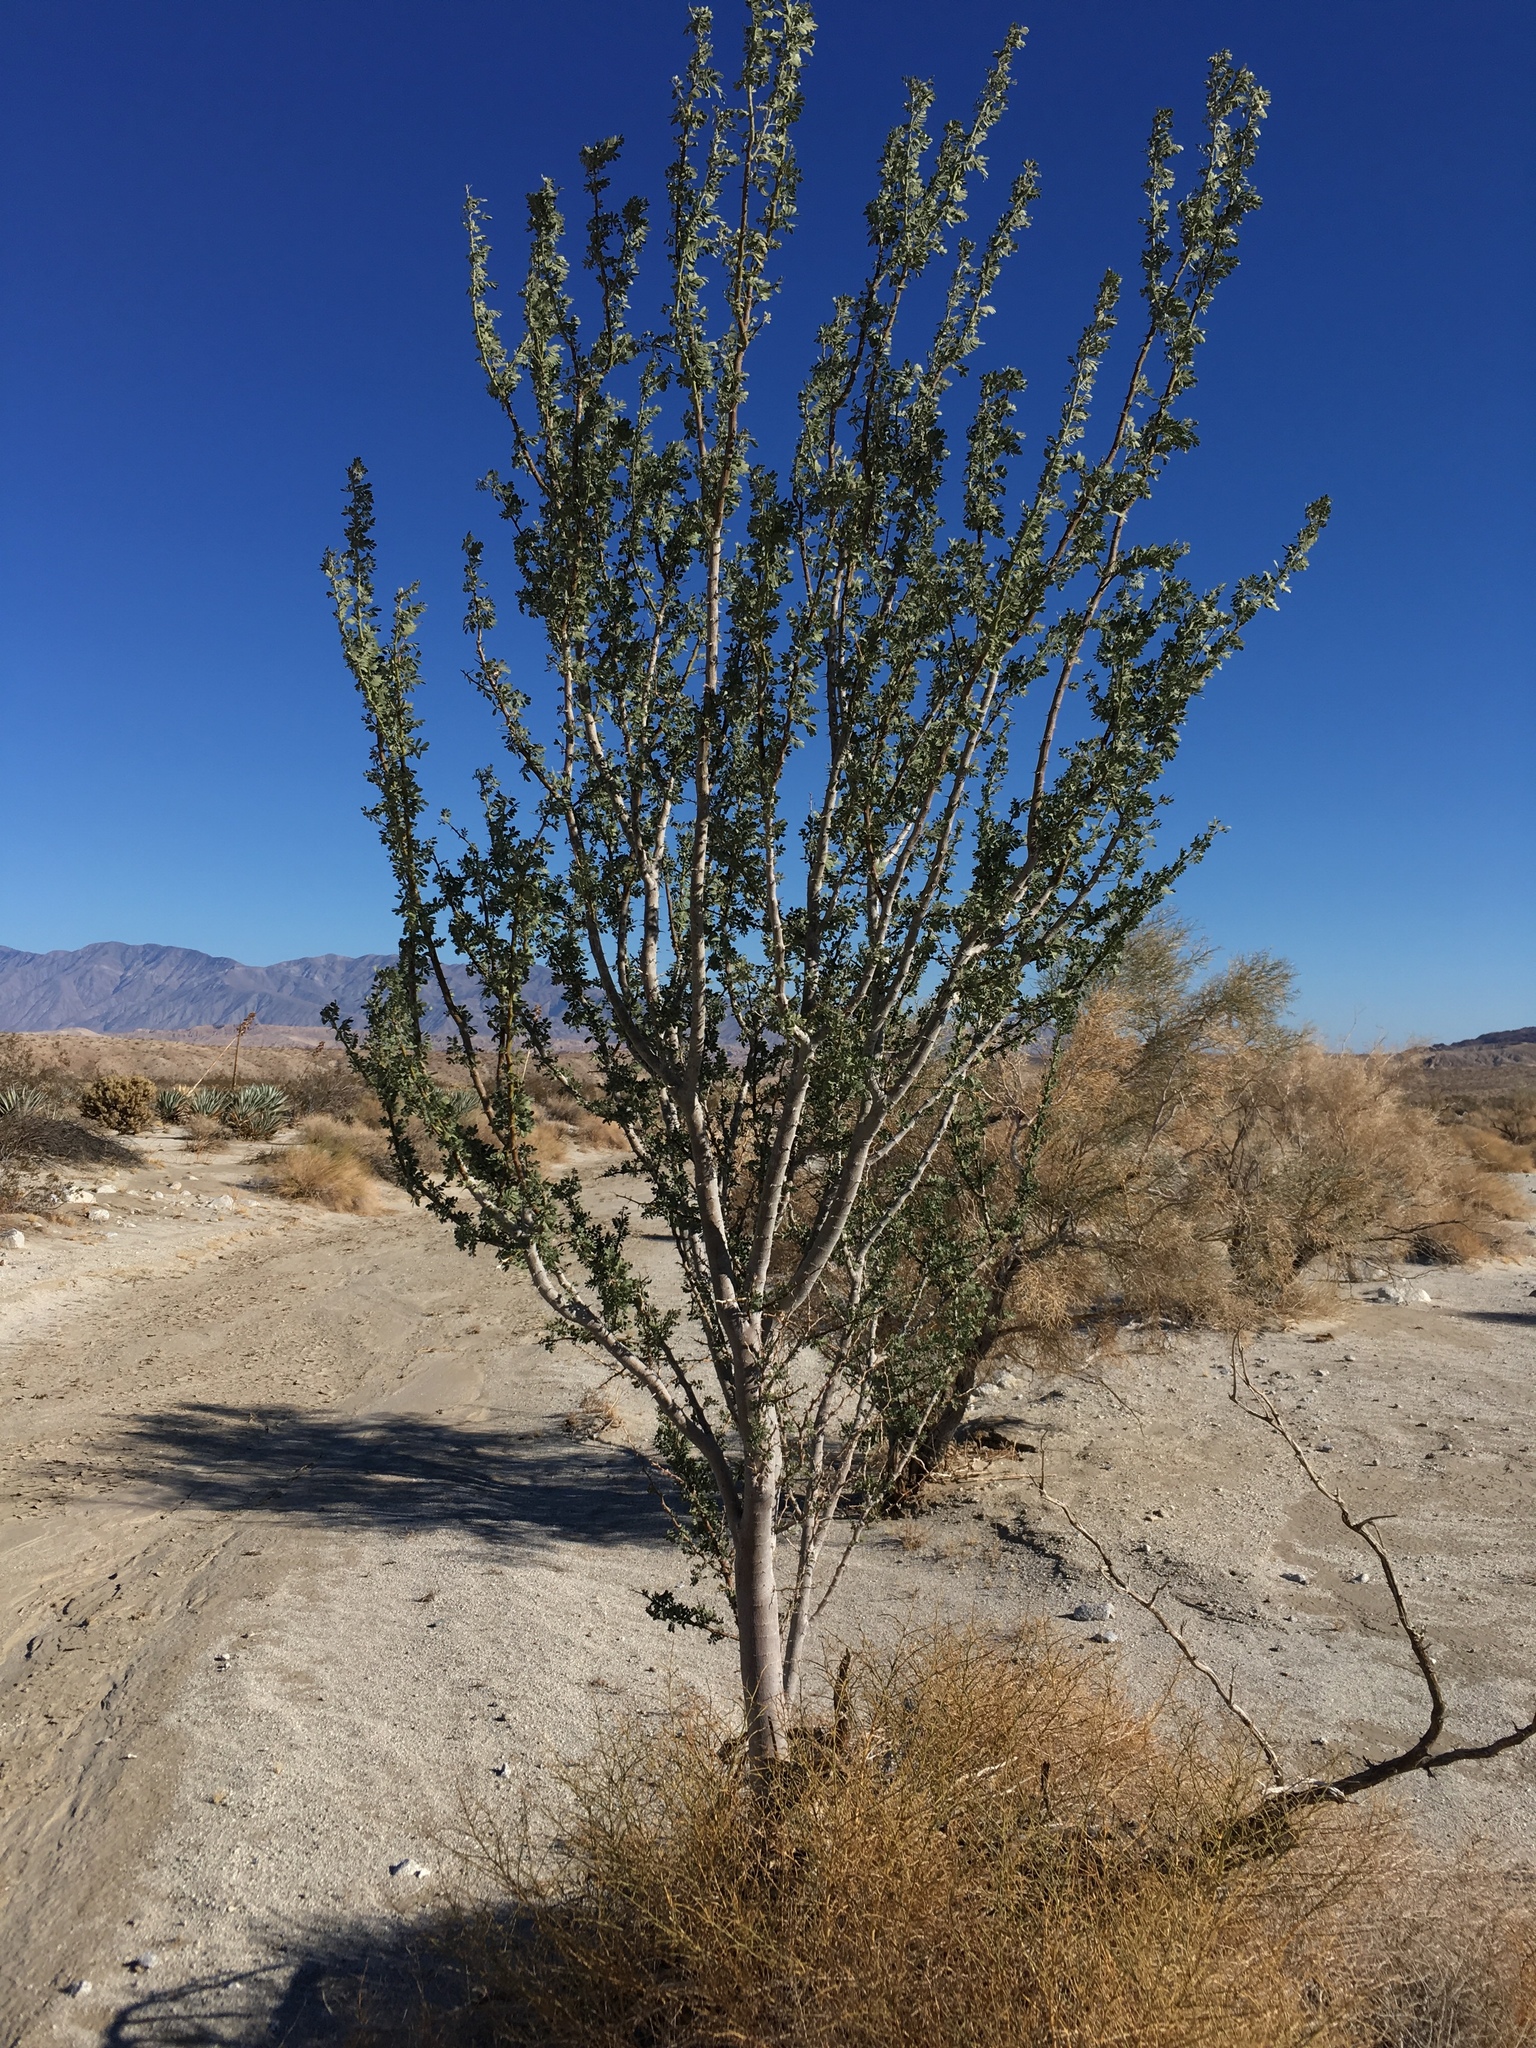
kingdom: Plantae
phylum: Tracheophyta
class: Magnoliopsida
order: Fabales
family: Fabaceae
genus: Olneya
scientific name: Olneya tesota
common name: Desert ironwood
